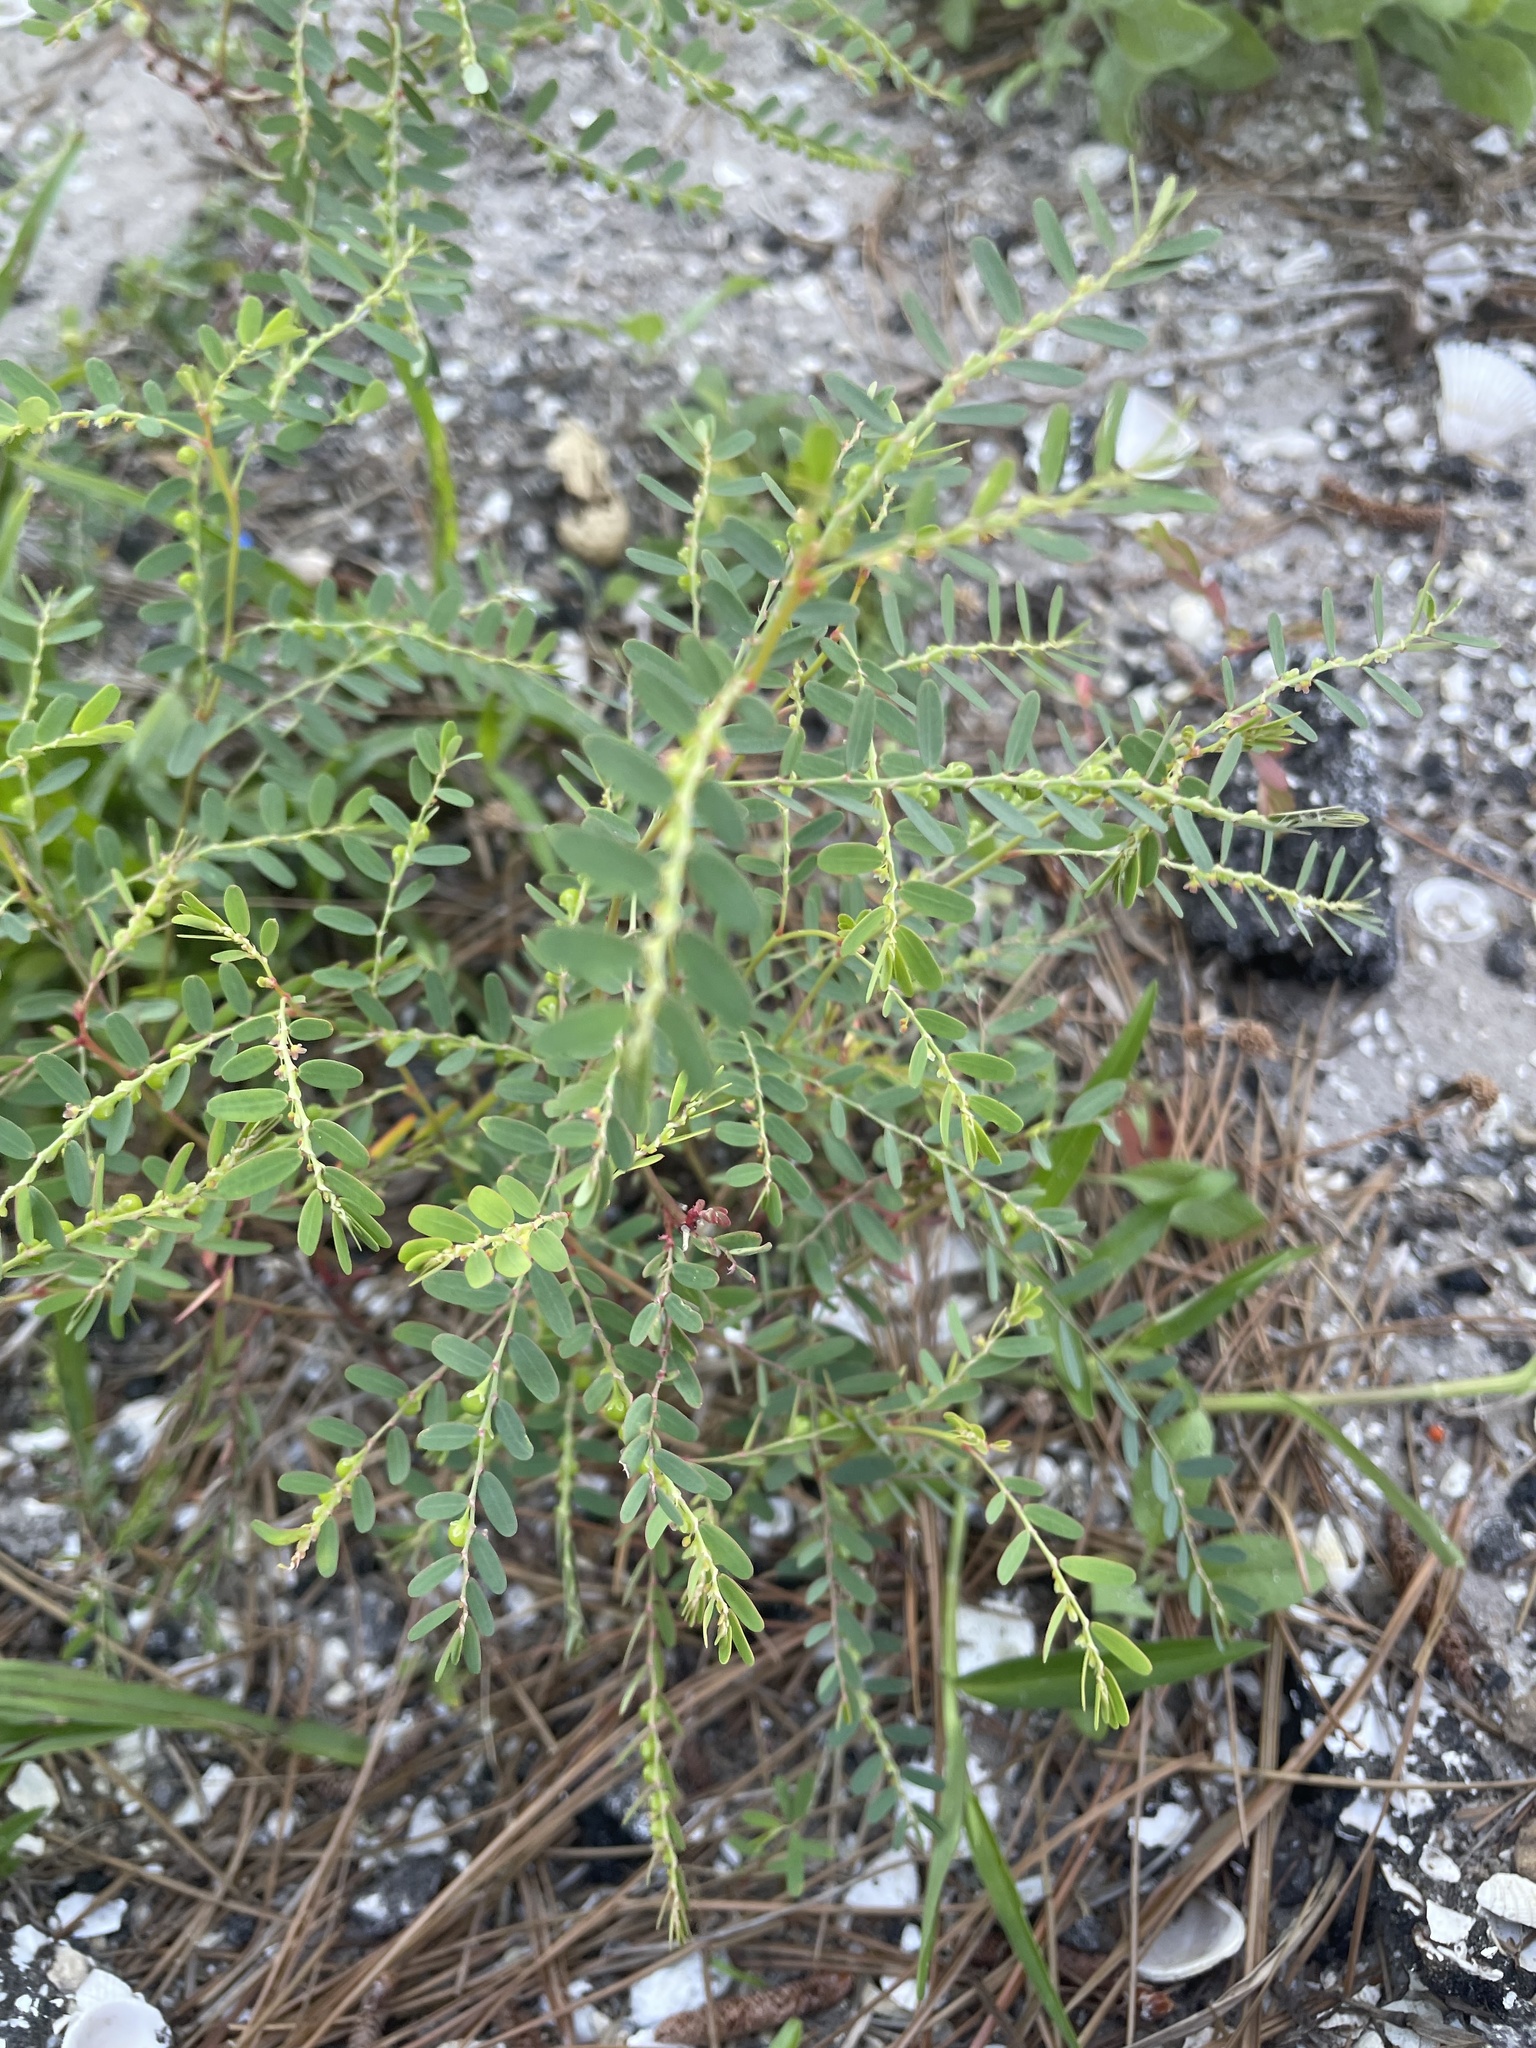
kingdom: Plantae
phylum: Tracheophyta
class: Magnoliopsida
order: Malpighiales
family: Phyllanthaceae
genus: Phyllanthus
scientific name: Phyllanthus abnormis
